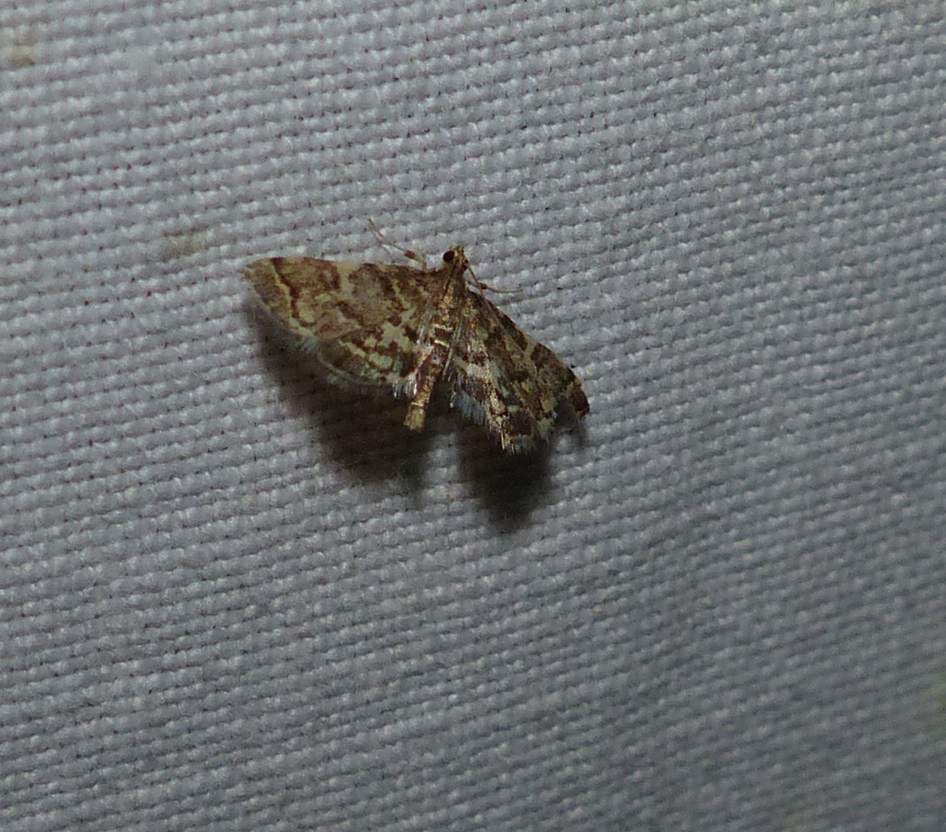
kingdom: Animalia
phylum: Arthropoda
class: Insecta
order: Lepidoptera
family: Crambidae
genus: Anageshna
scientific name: Anageshna primordialis
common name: Yellow-spotted webworm moth
